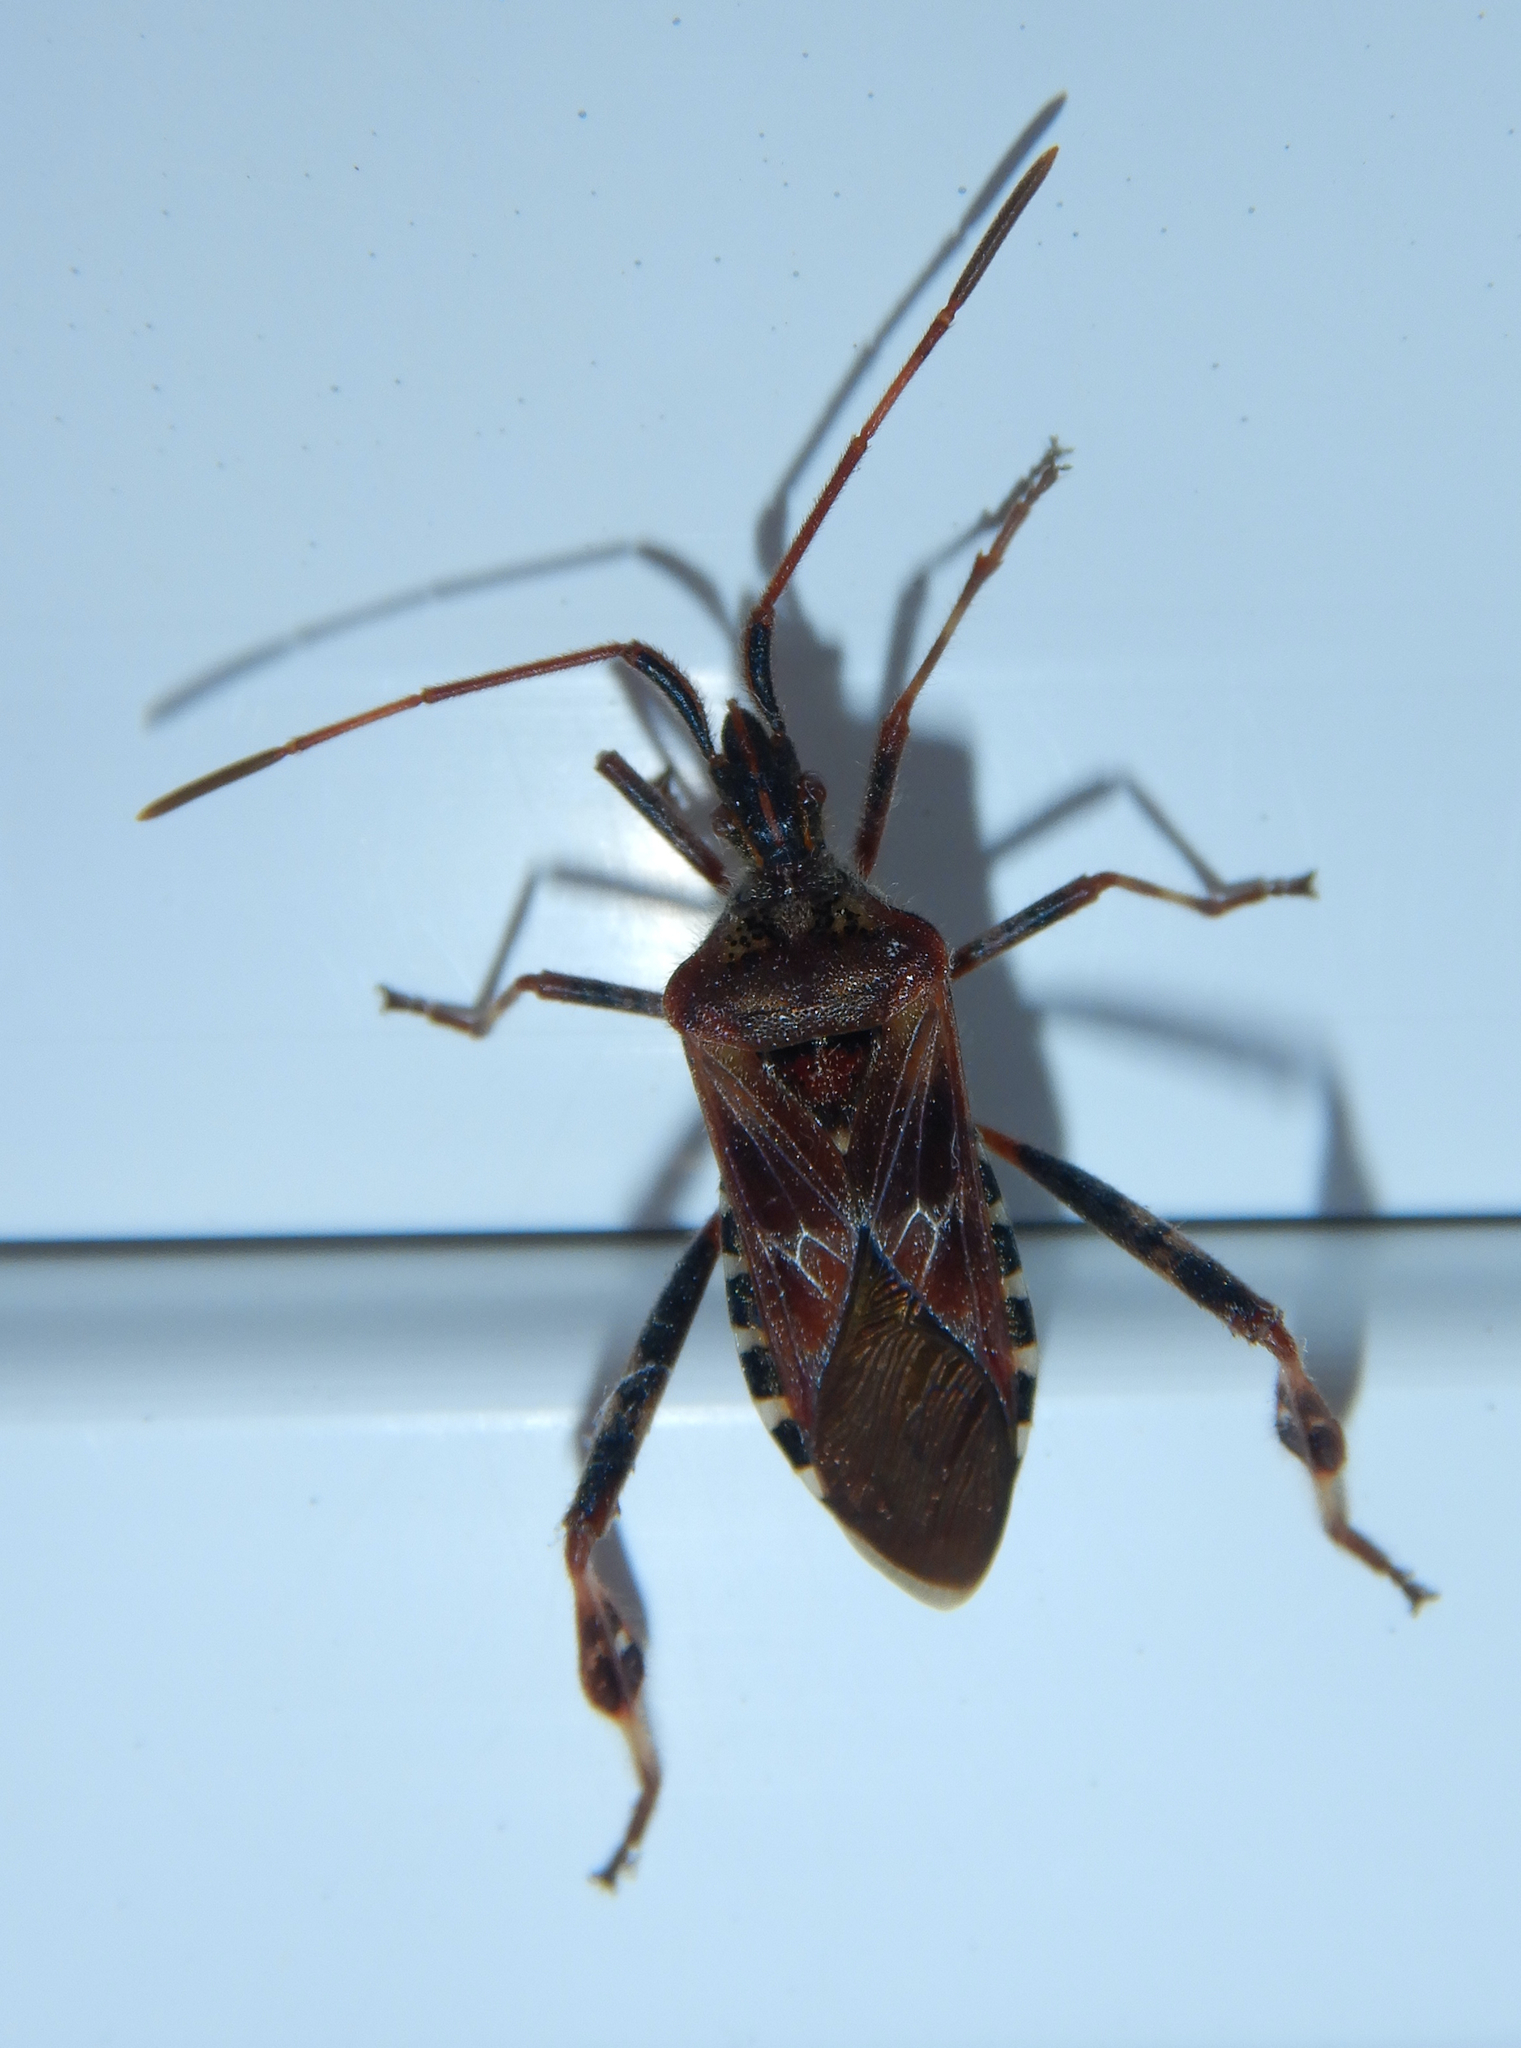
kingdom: Animalia
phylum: Arthropoda
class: Insecta
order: Hemiptera
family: Coreidae
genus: Leptoglossus
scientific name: Leptoglossus occidentalis
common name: Western conifer-seed bug
